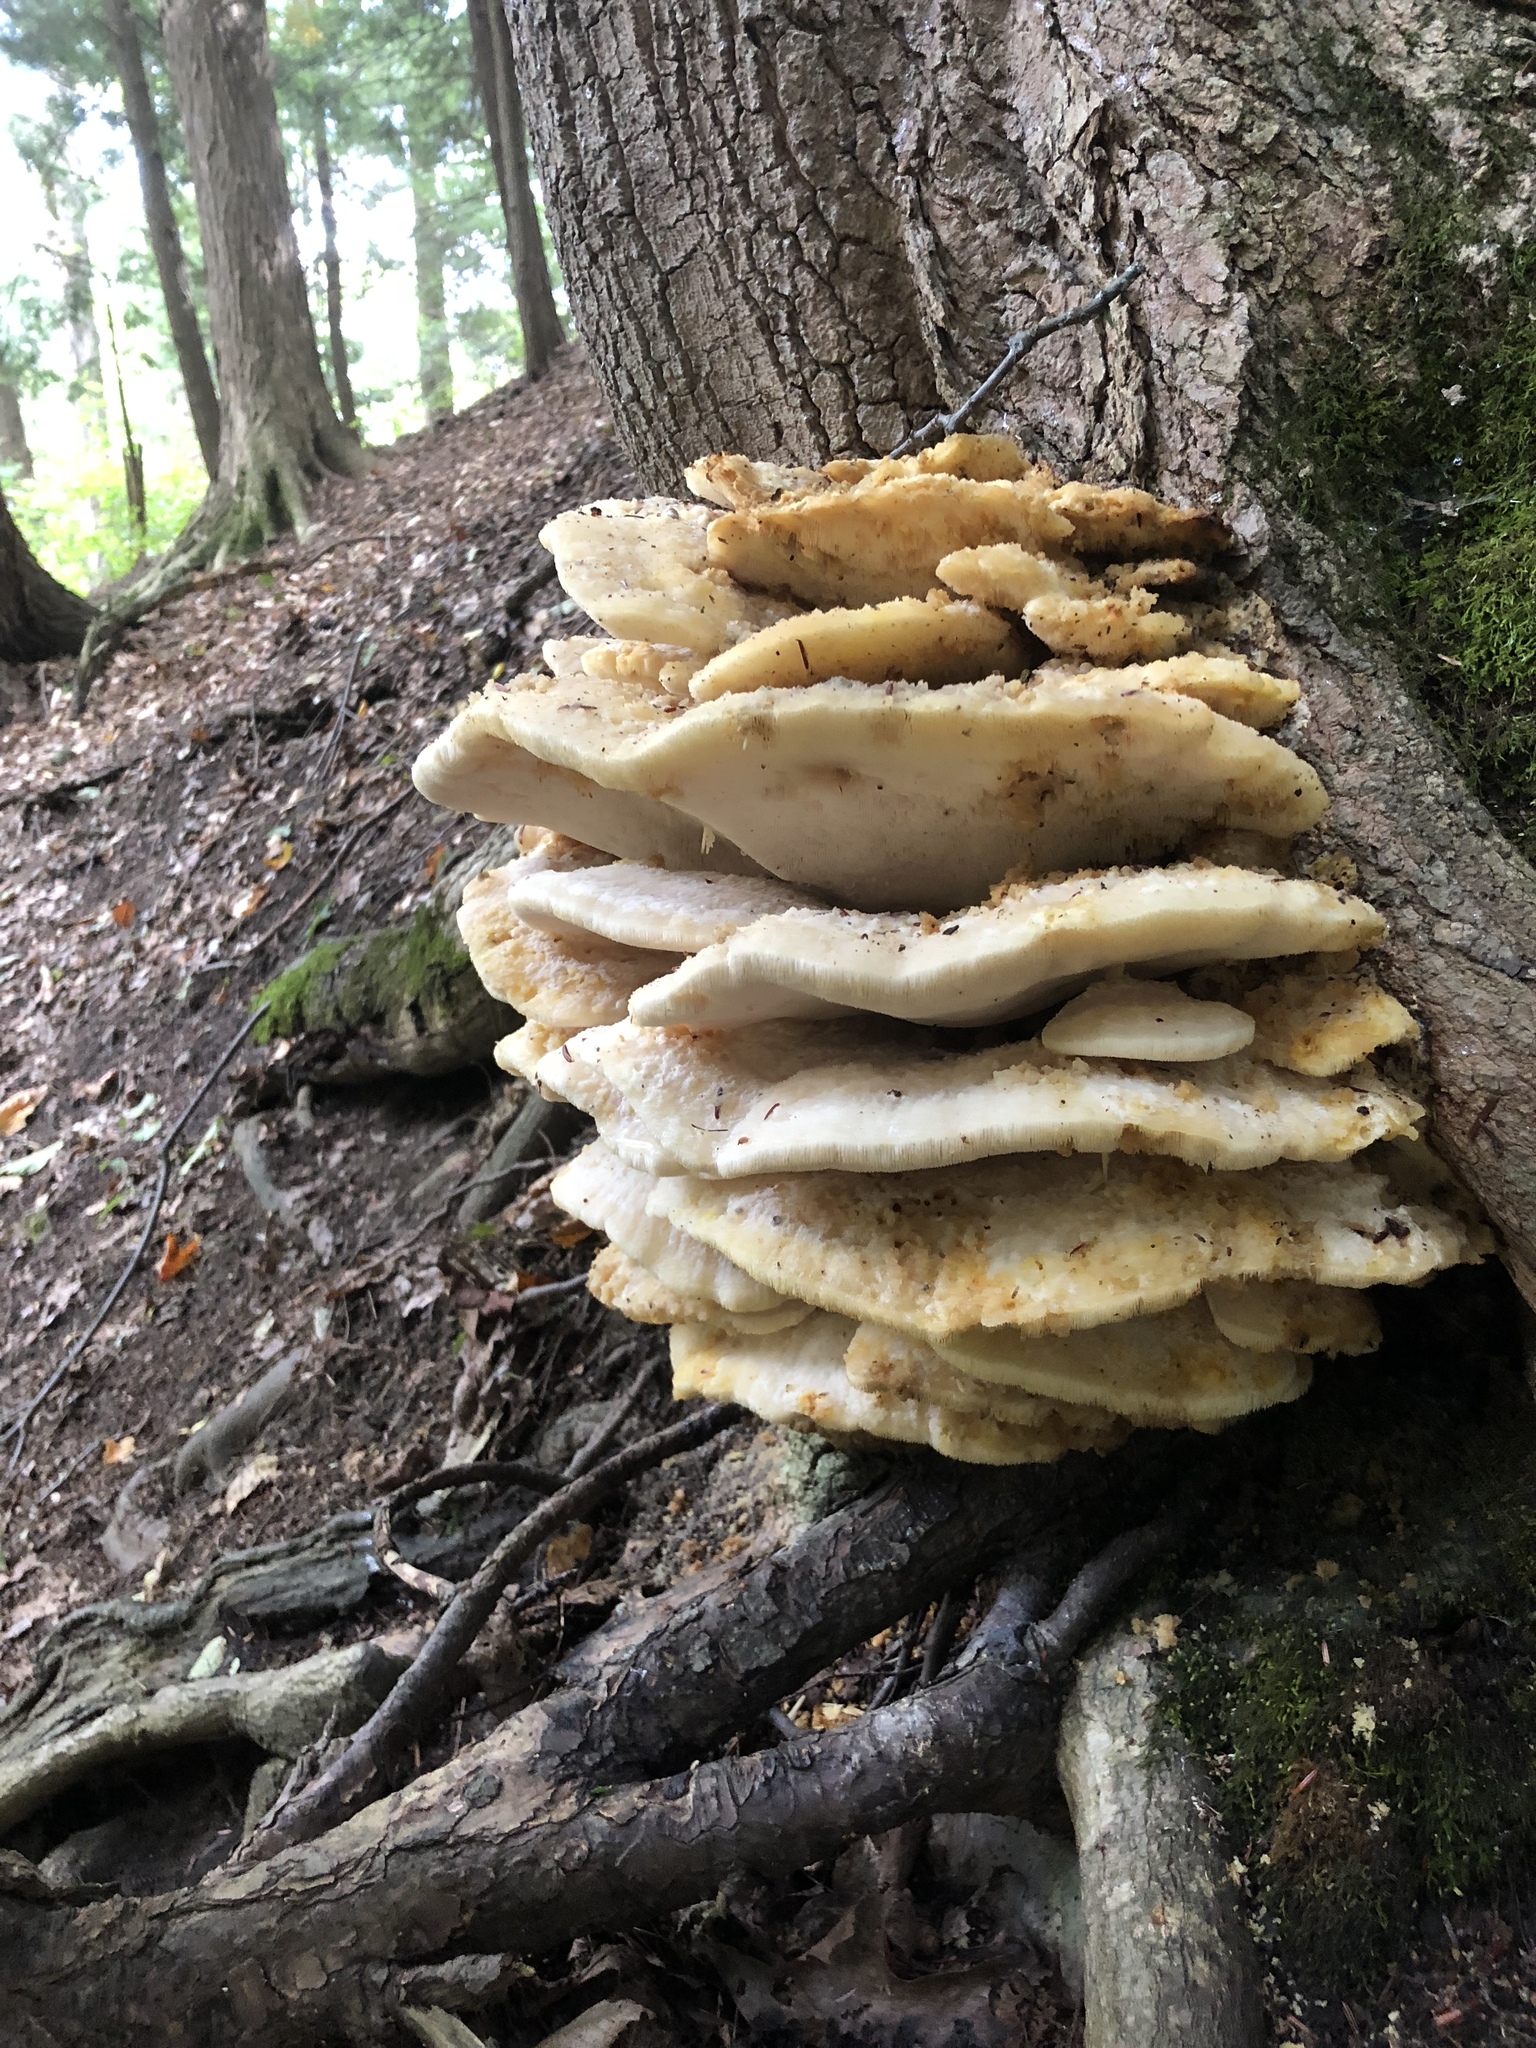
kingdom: Fungi
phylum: Basidiomycota
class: Agaricomycetes
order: Polyporales
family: Meruliaceae
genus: Climacodon
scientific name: Climacodon septentrionalis
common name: Northern tooth
